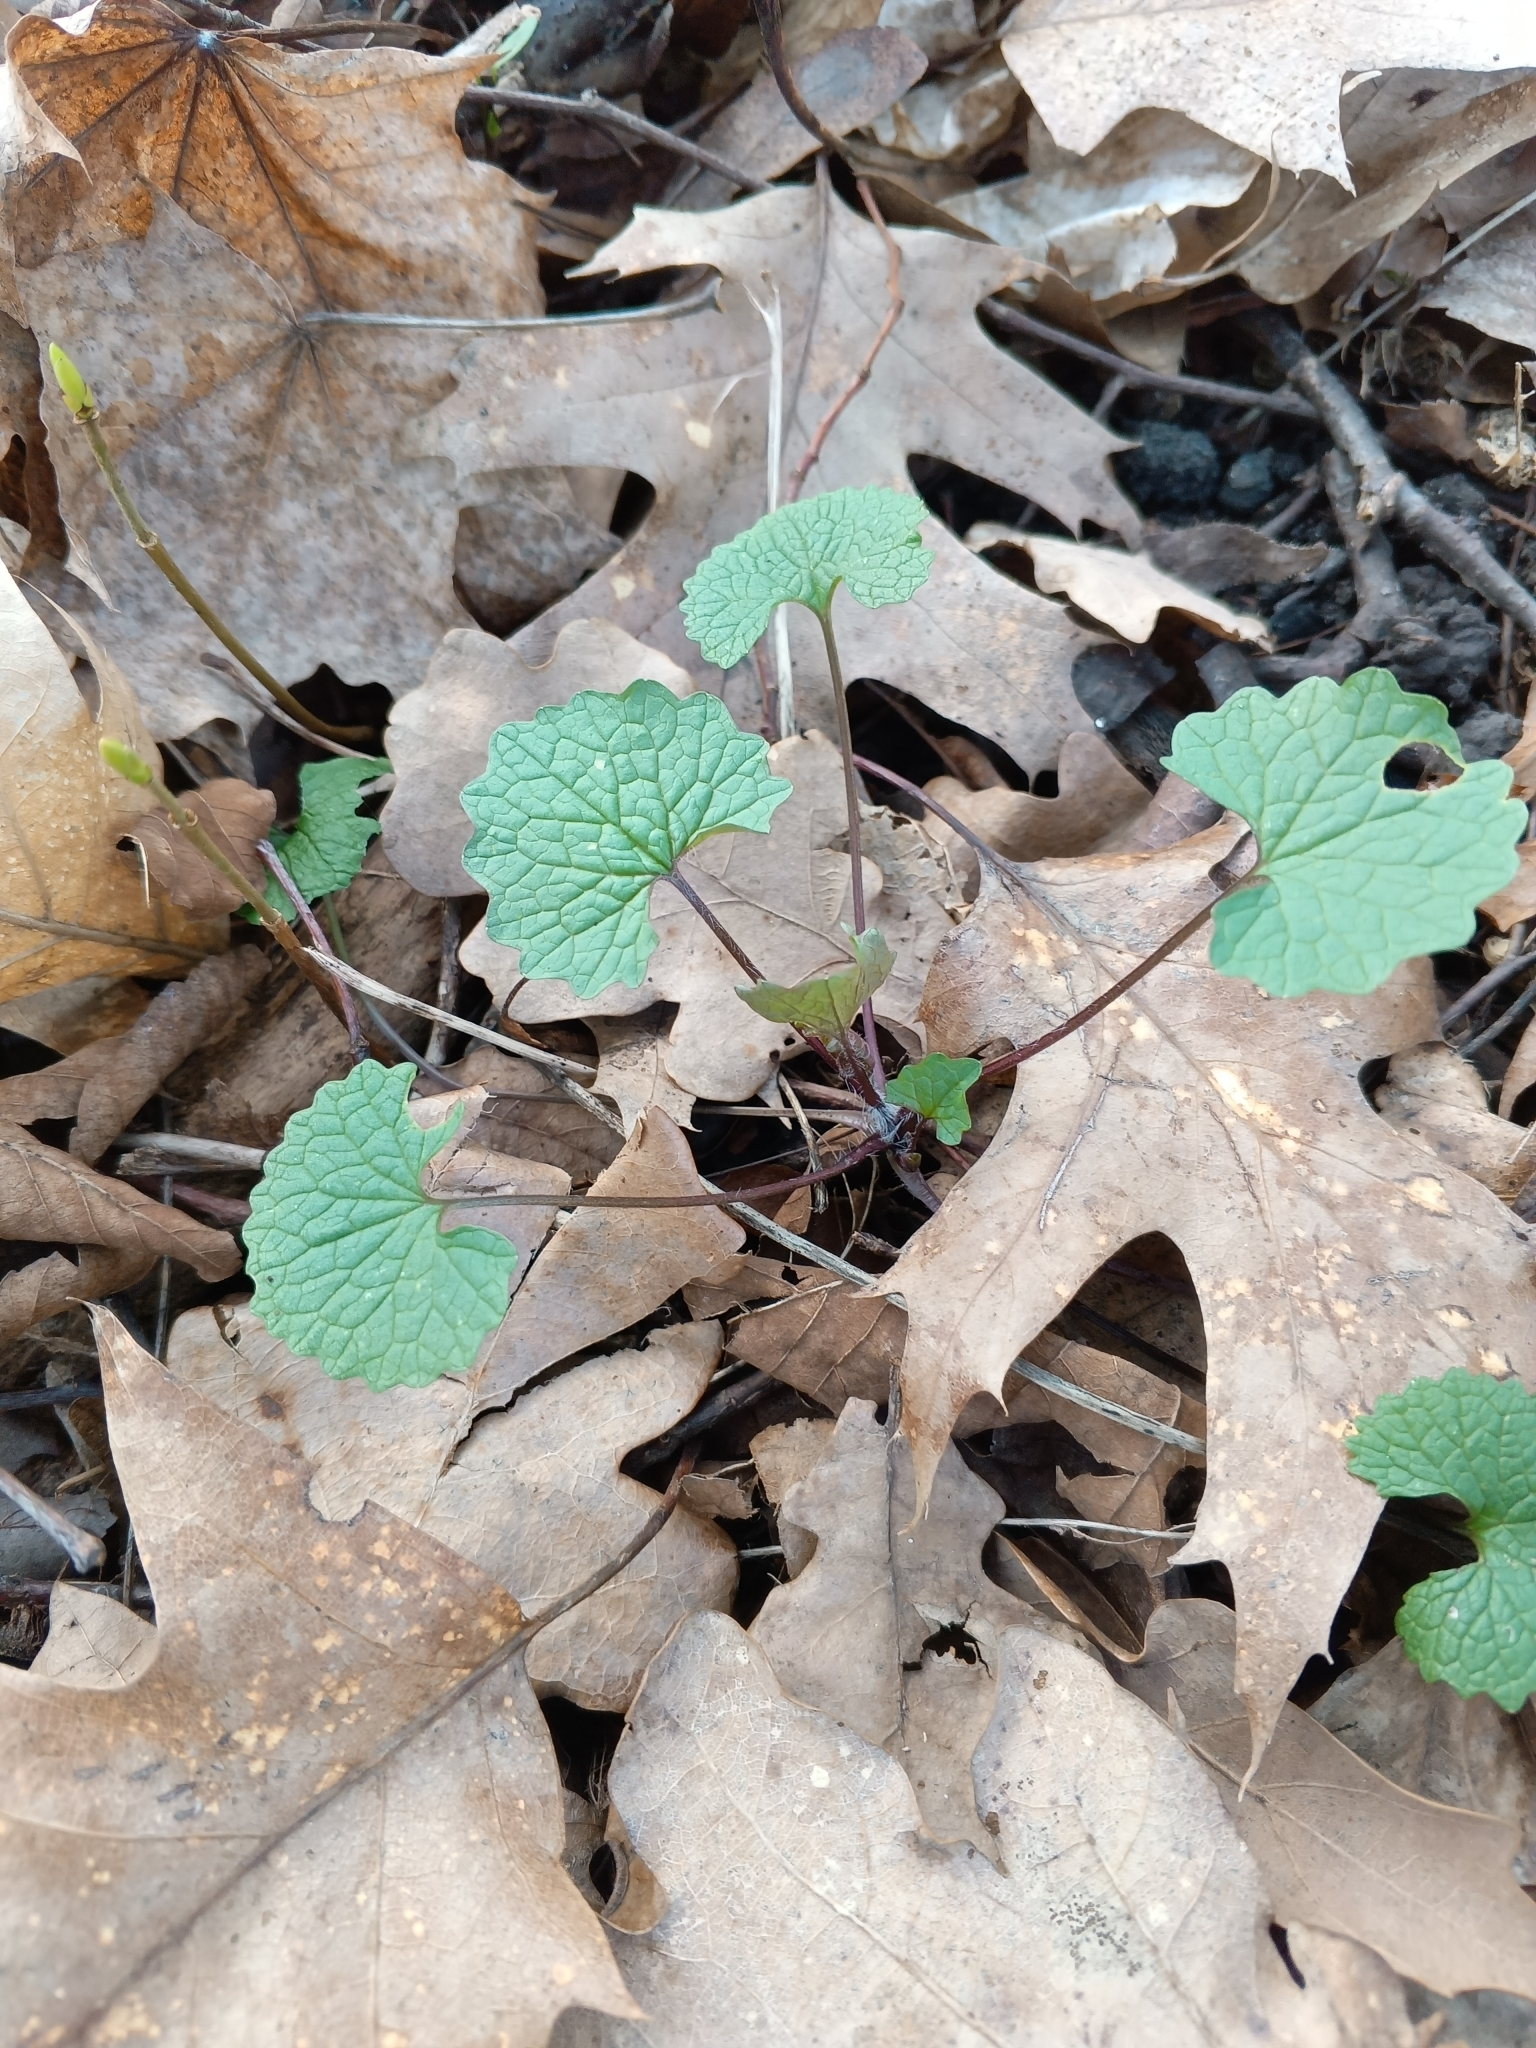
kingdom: Plantae
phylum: Tracheophyta
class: Magnoliopsida
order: Brassicales
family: Brassicaceae
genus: Alliaria
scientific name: Alliaria petiolata
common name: Garlic mustard
